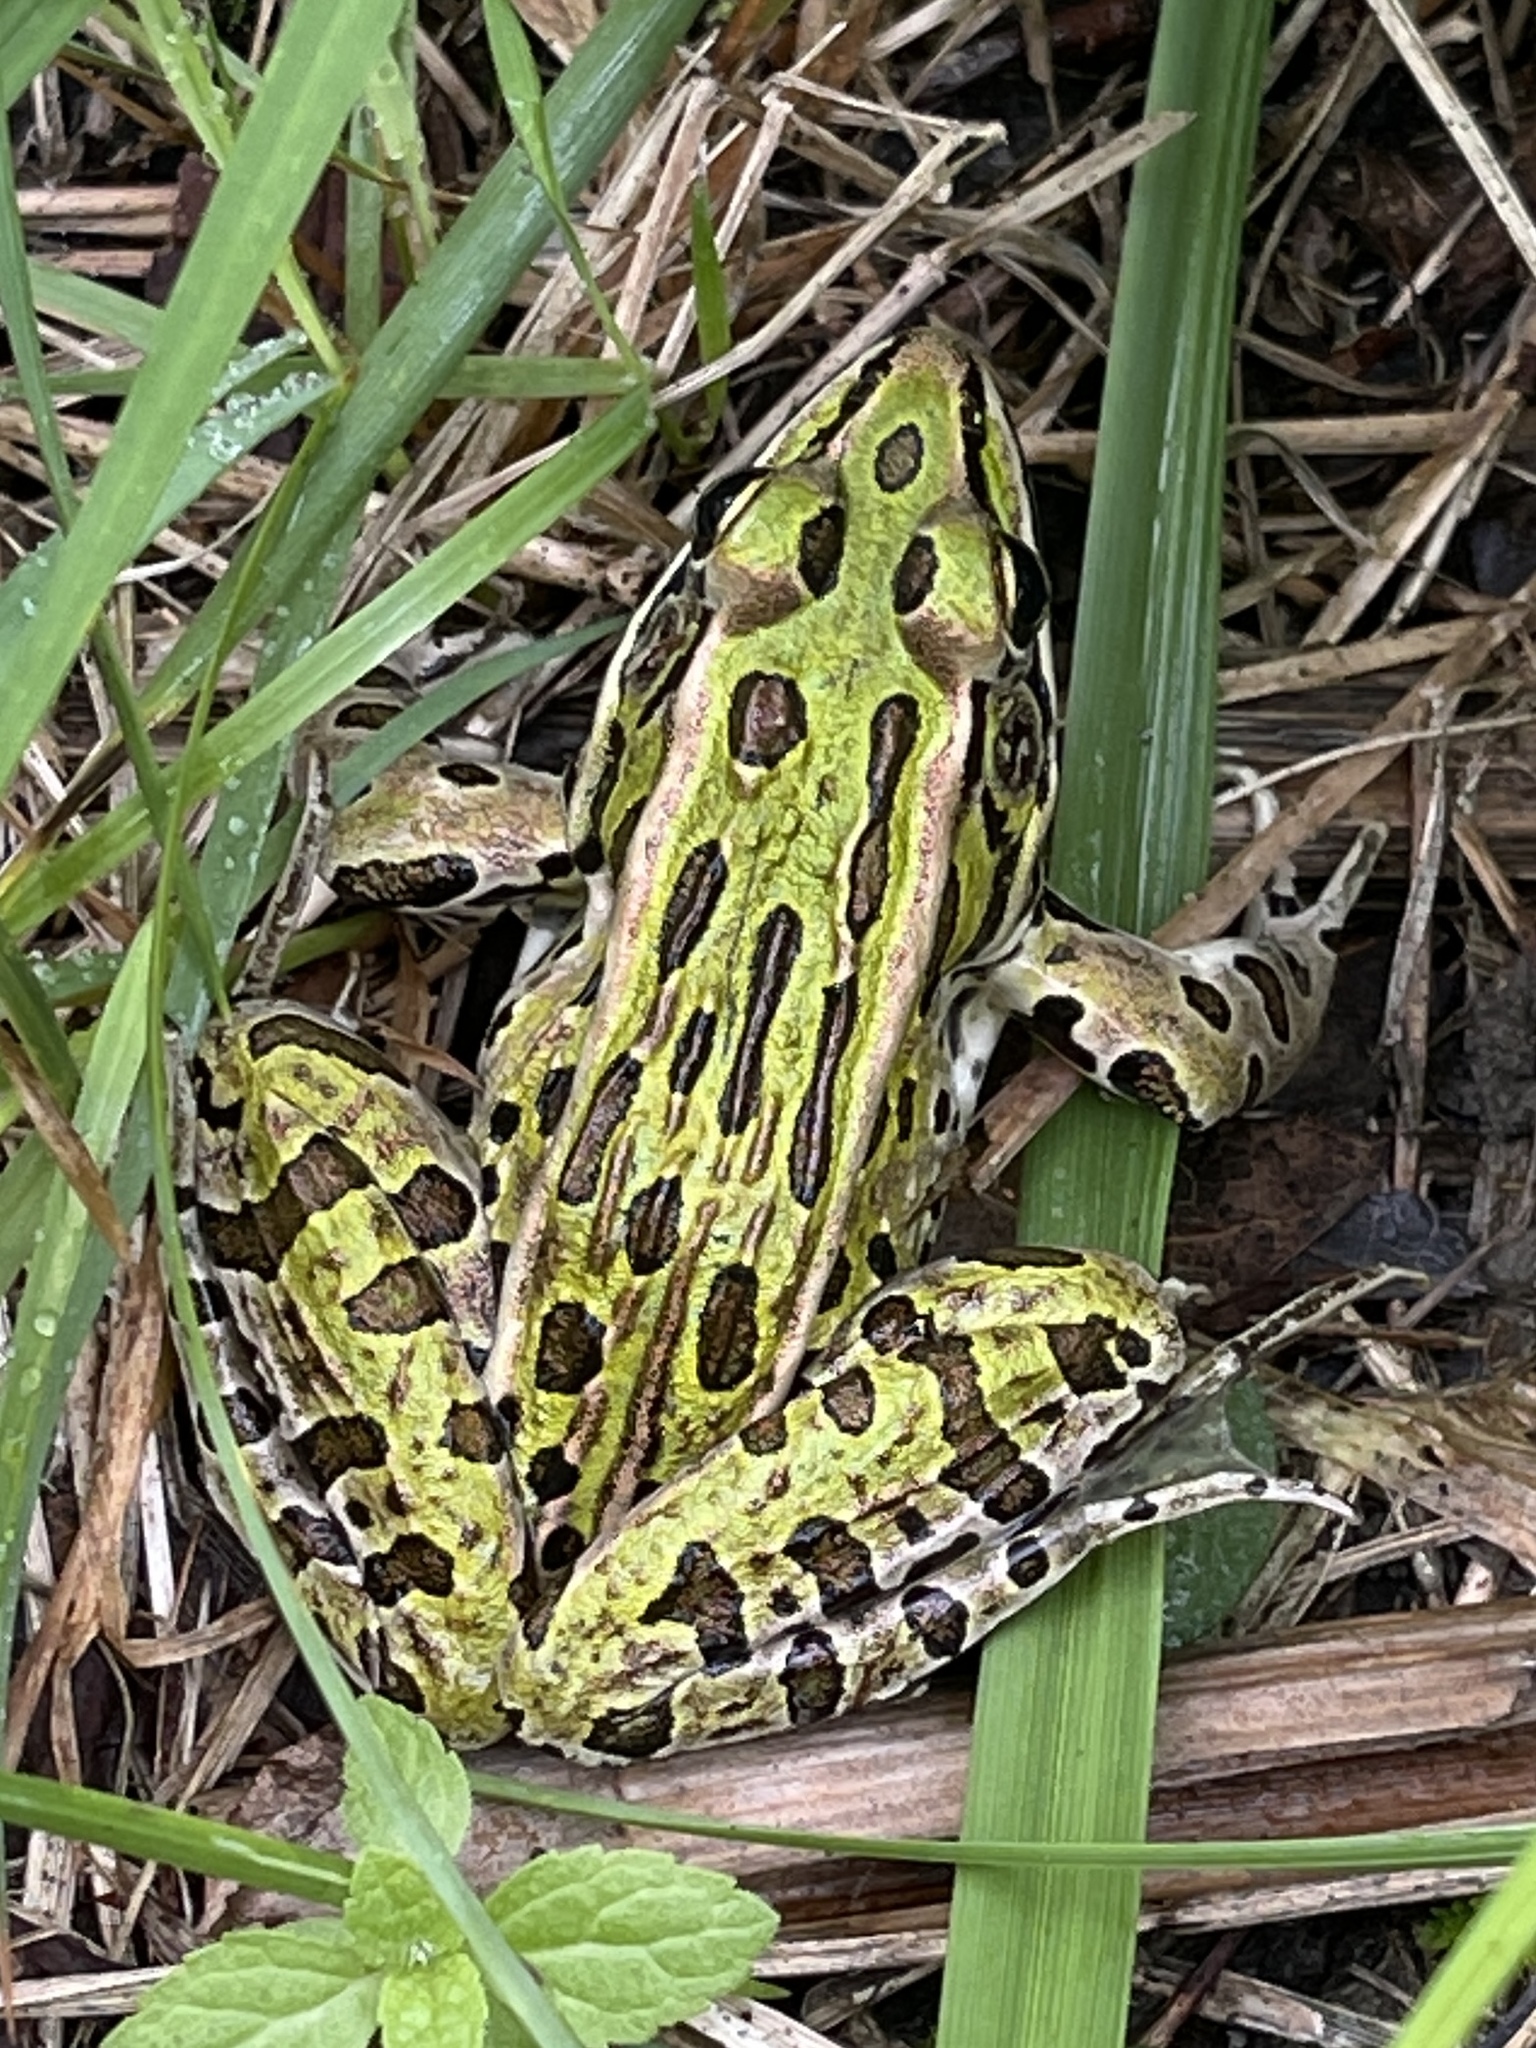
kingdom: Animalia
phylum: Chordata
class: Amphibia
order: Anura
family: Ranidae
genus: Lithobates
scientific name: Lithobates pipiens
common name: Northern leopard frog
